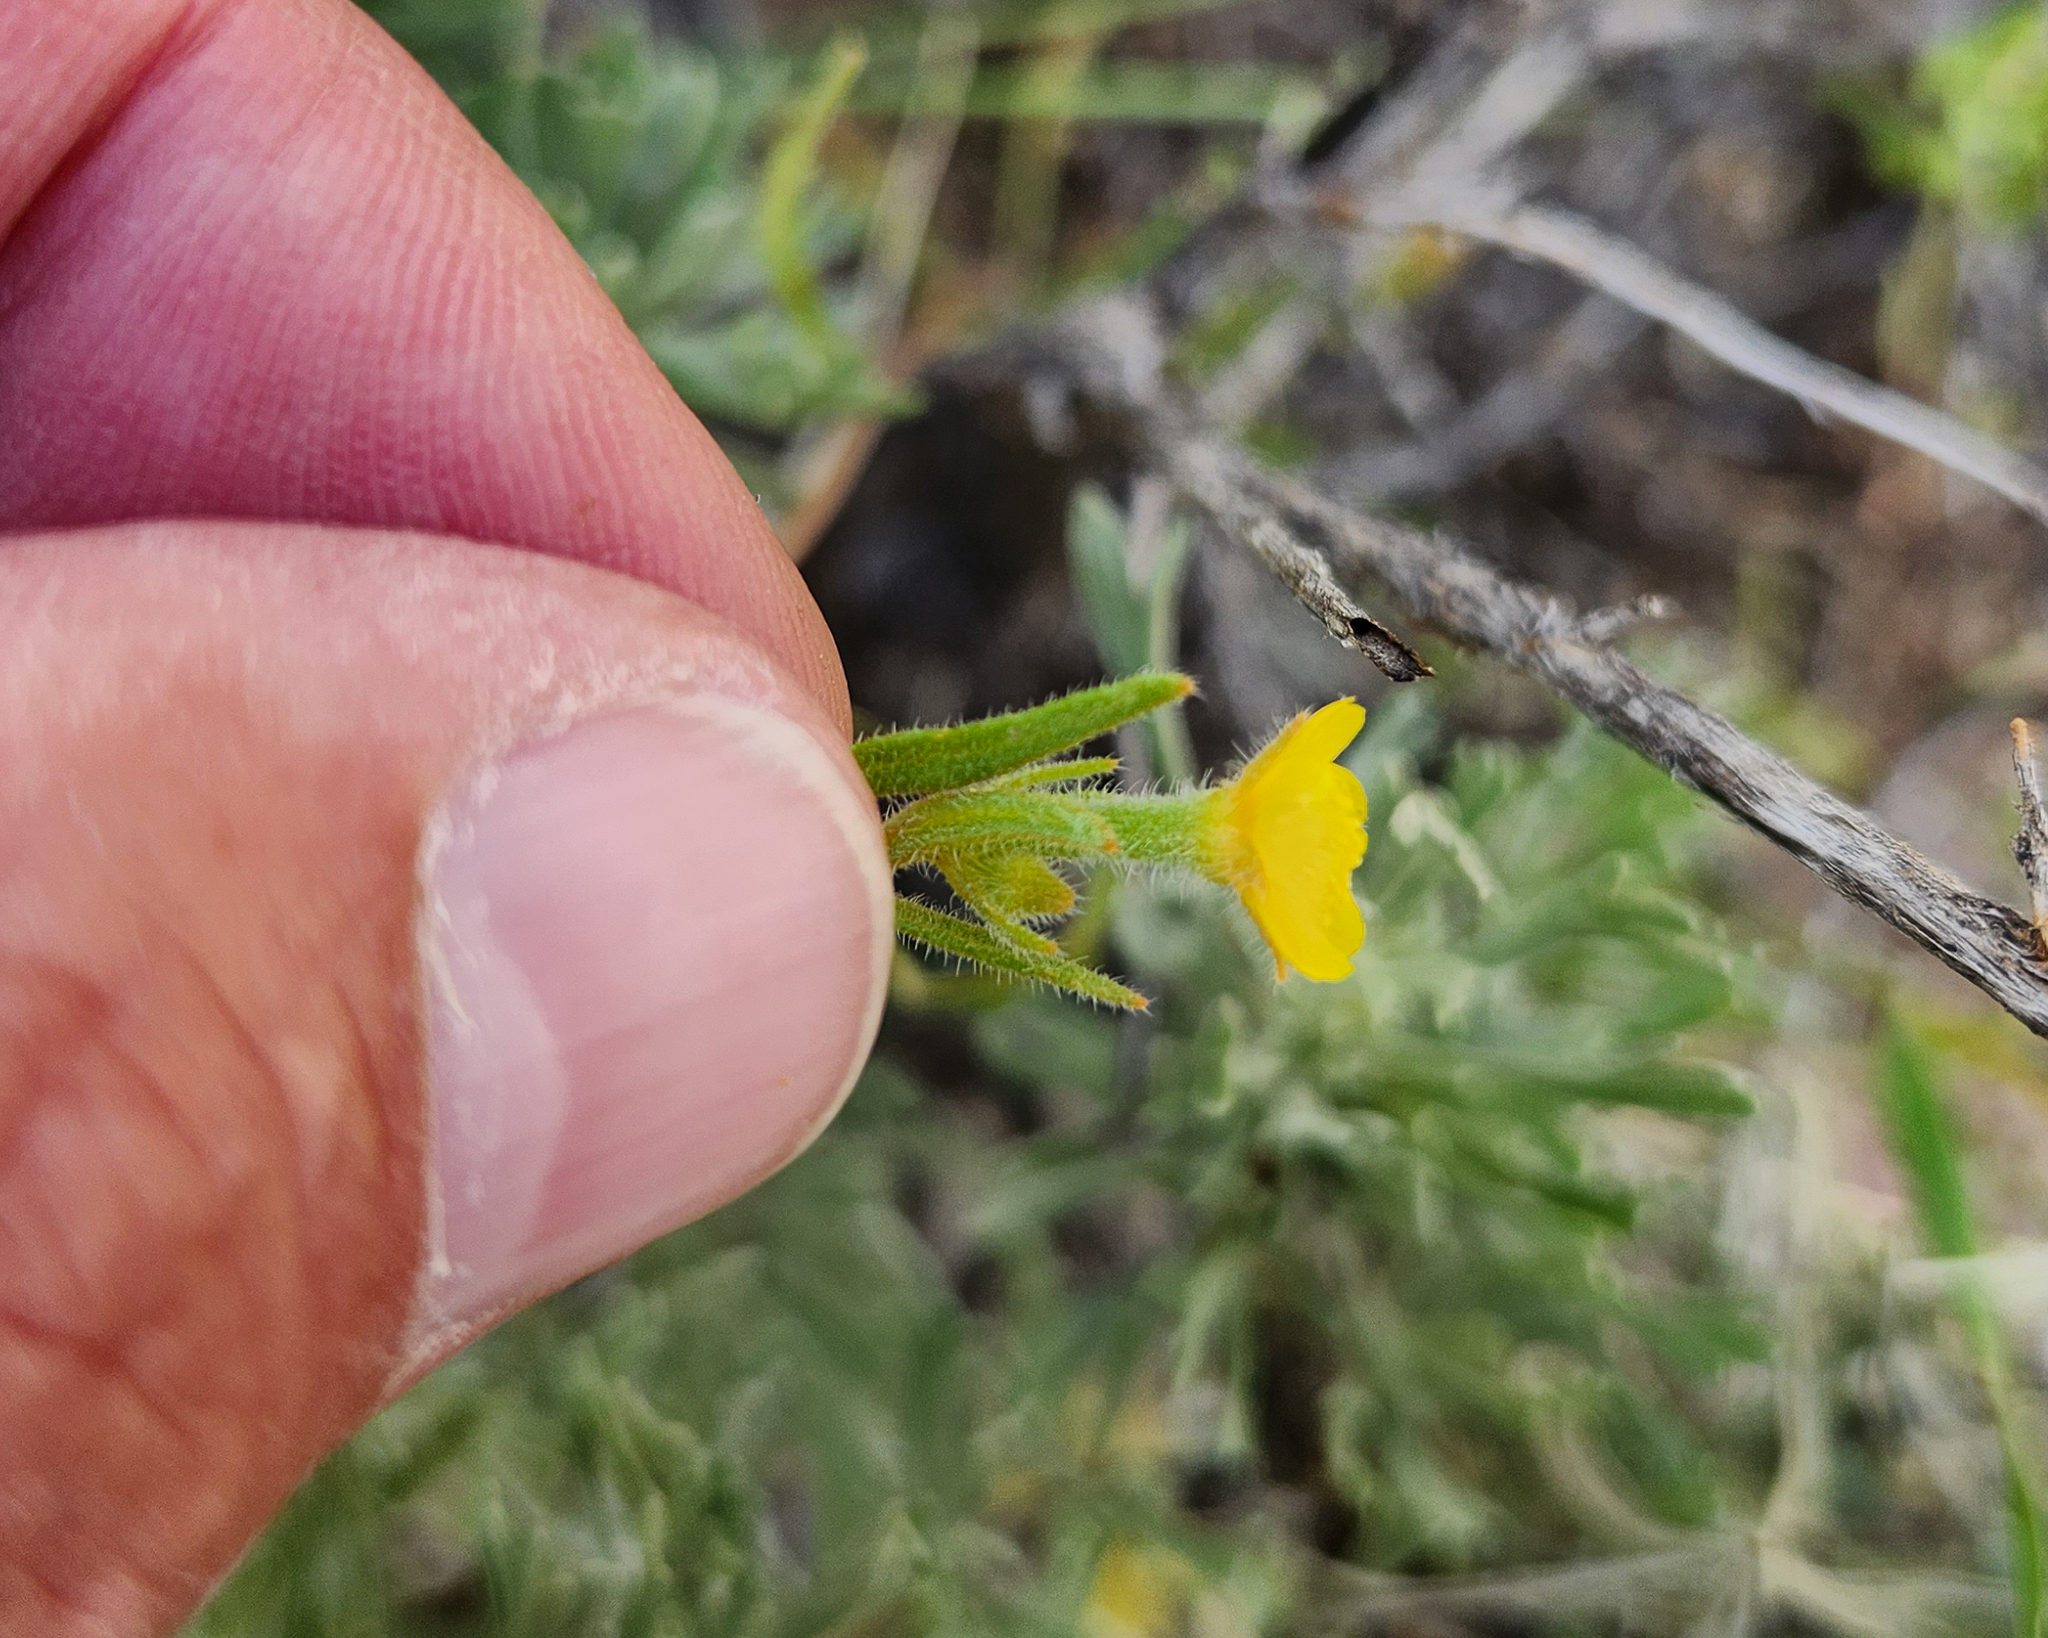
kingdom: Plantae
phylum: Tracheophyta
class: Magnoliopsida
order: Cornales
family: Loasaceae
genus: Mentzelia
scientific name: Mentzelia albicaulis
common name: White-stem blazingstar
